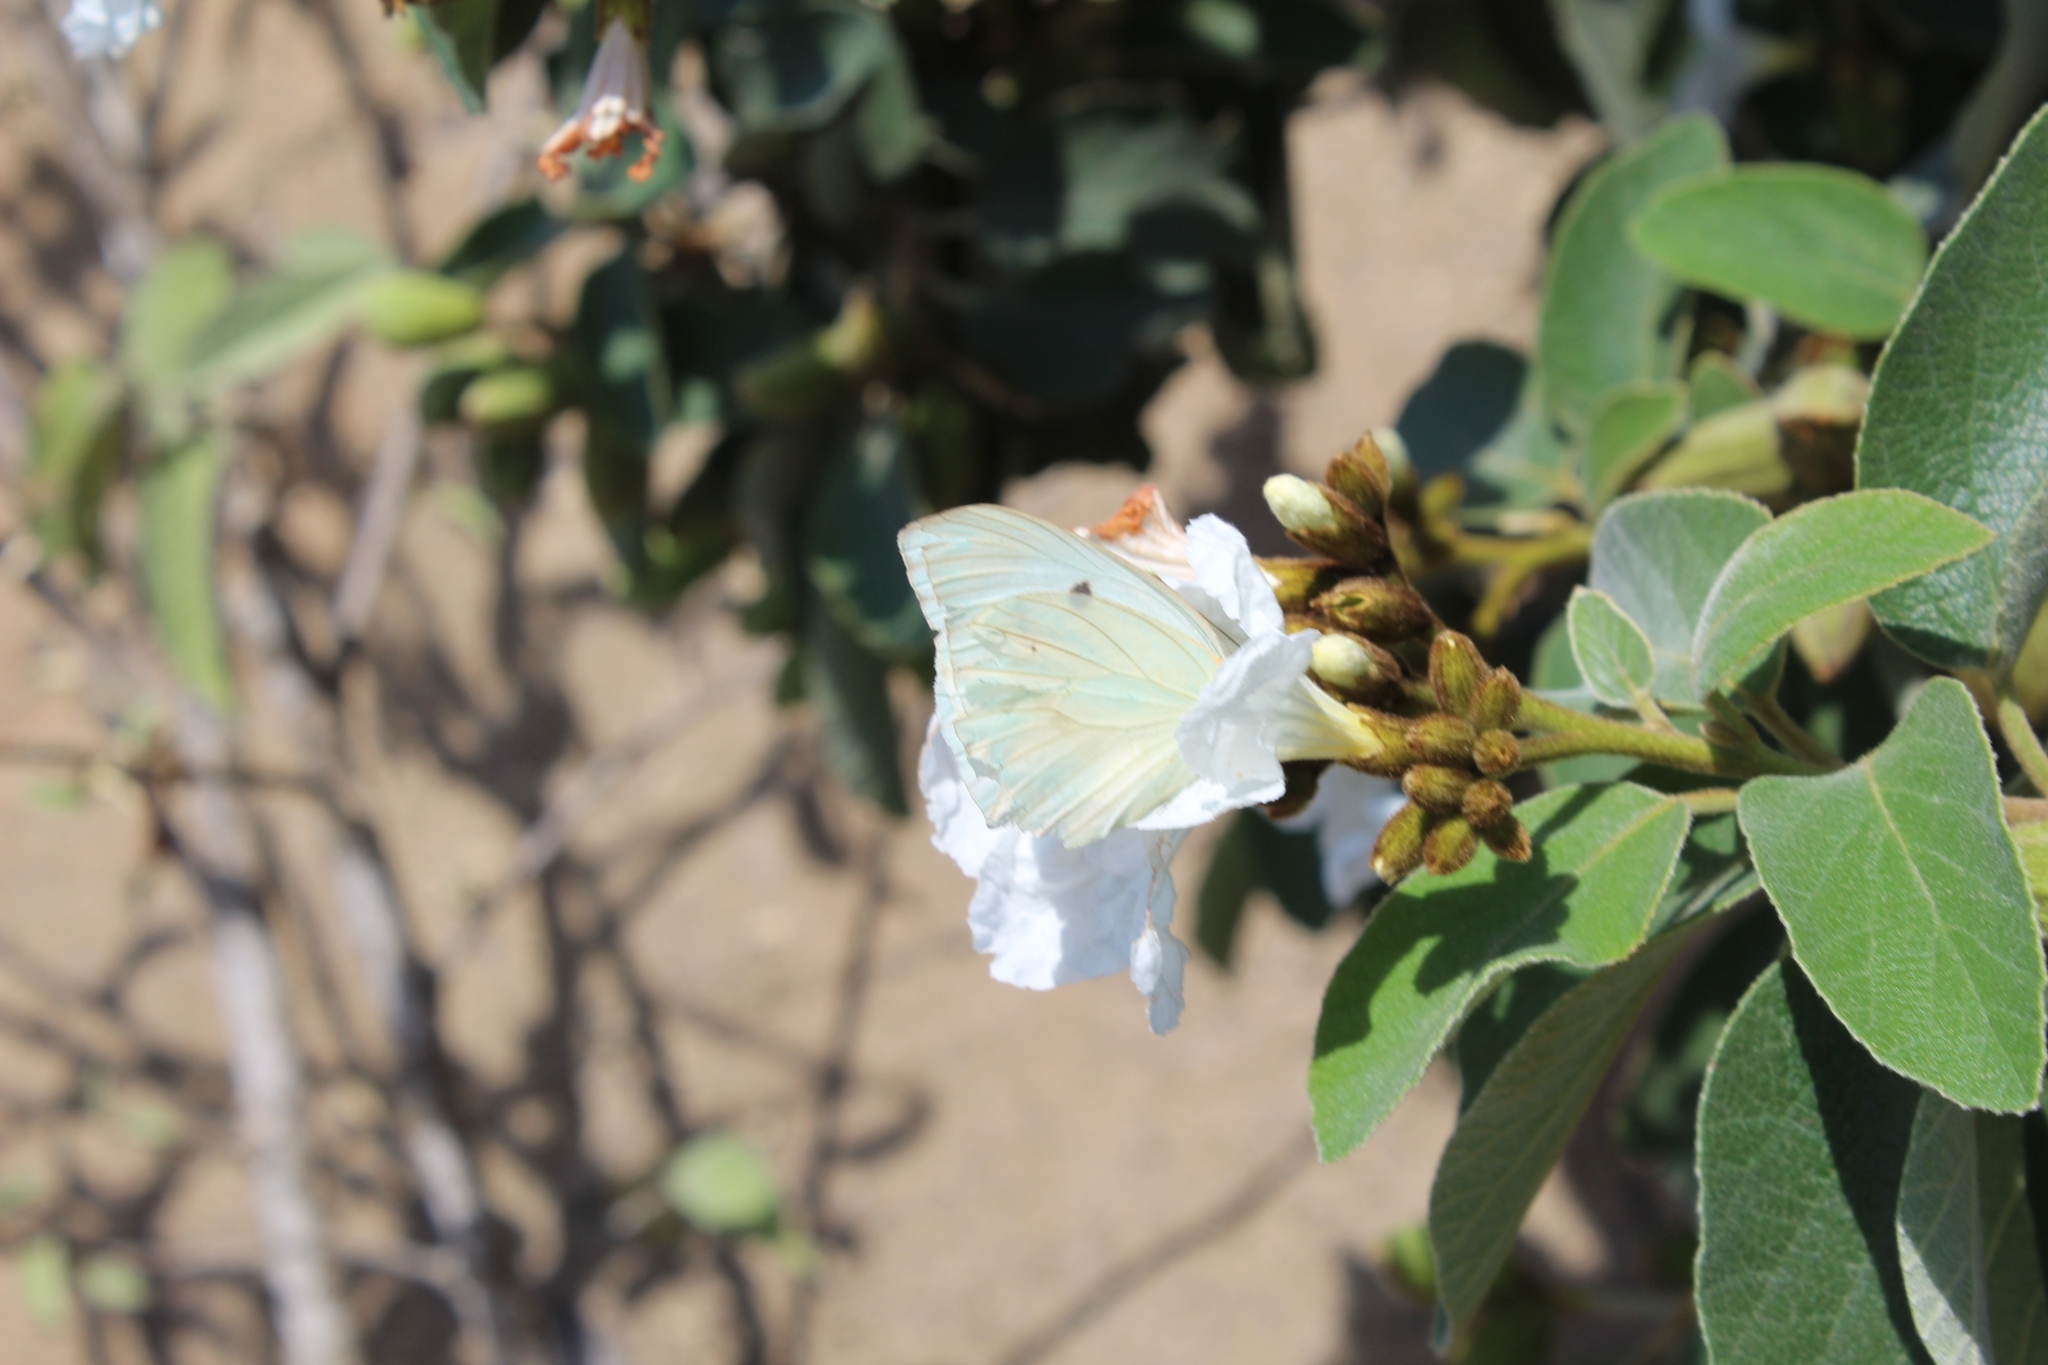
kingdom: Animalia
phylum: Arthropoda
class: Insecta
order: Lepidoptera
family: Pieridae
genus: Ganyra
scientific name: Ganyra josephina
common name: Giant white
